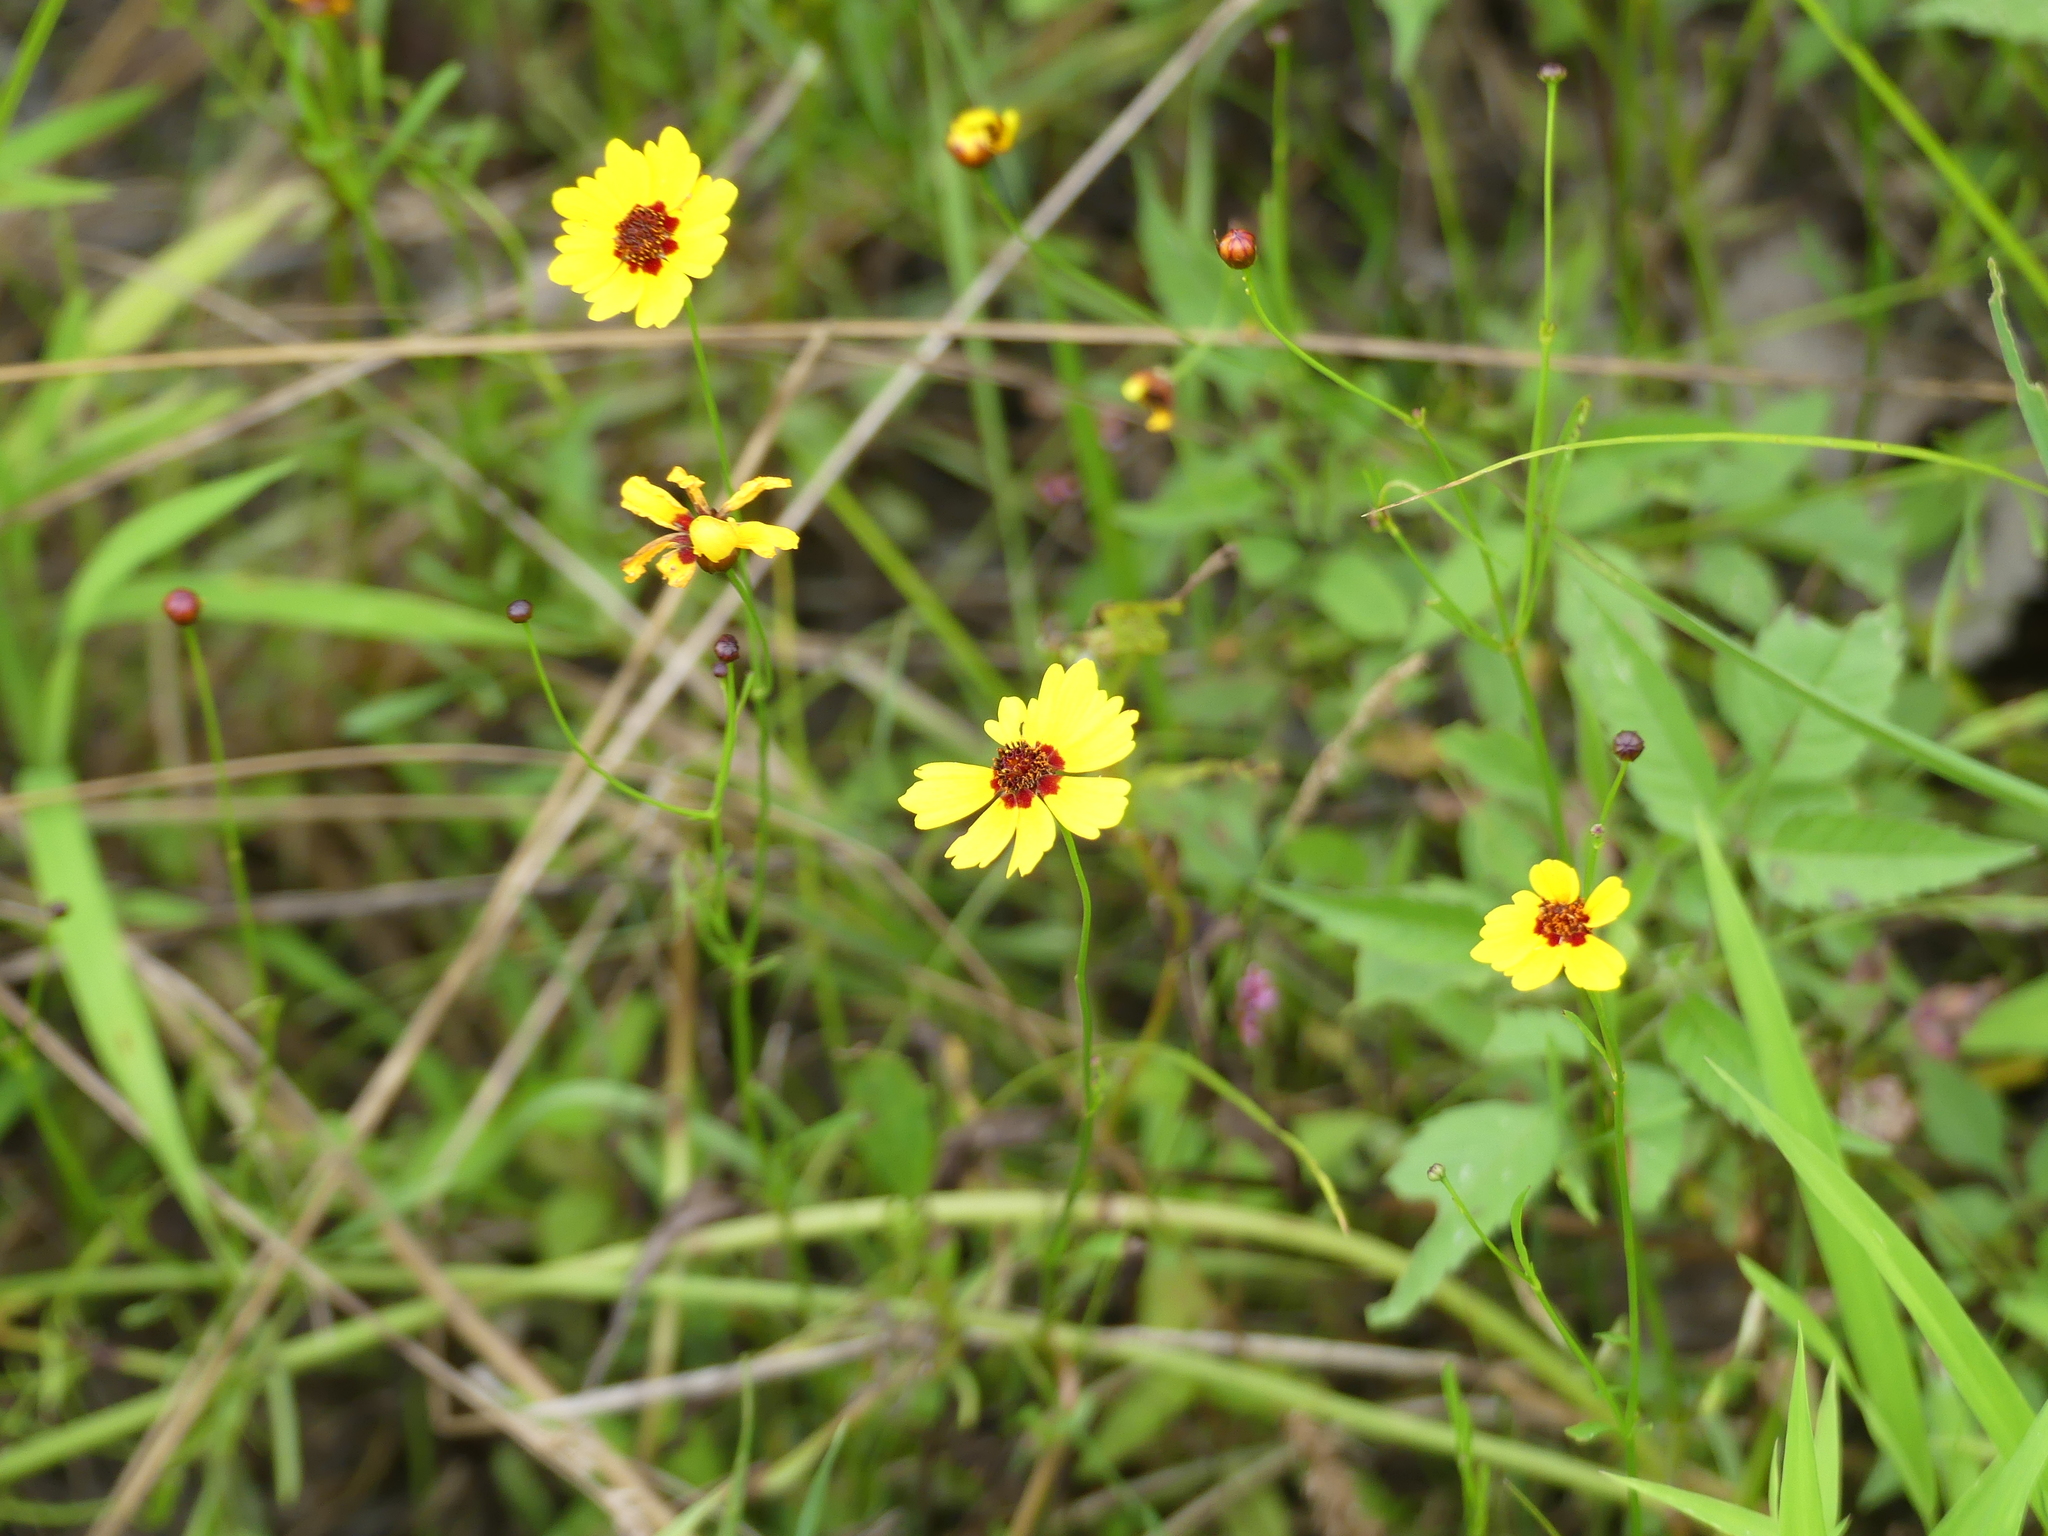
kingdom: Plantae
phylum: Tracheophyta
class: Magnoliopsida
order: Asterales
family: Asteraceae
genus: Coreopsis
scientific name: Coreopsis tinctoria
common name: Garden tickseed
